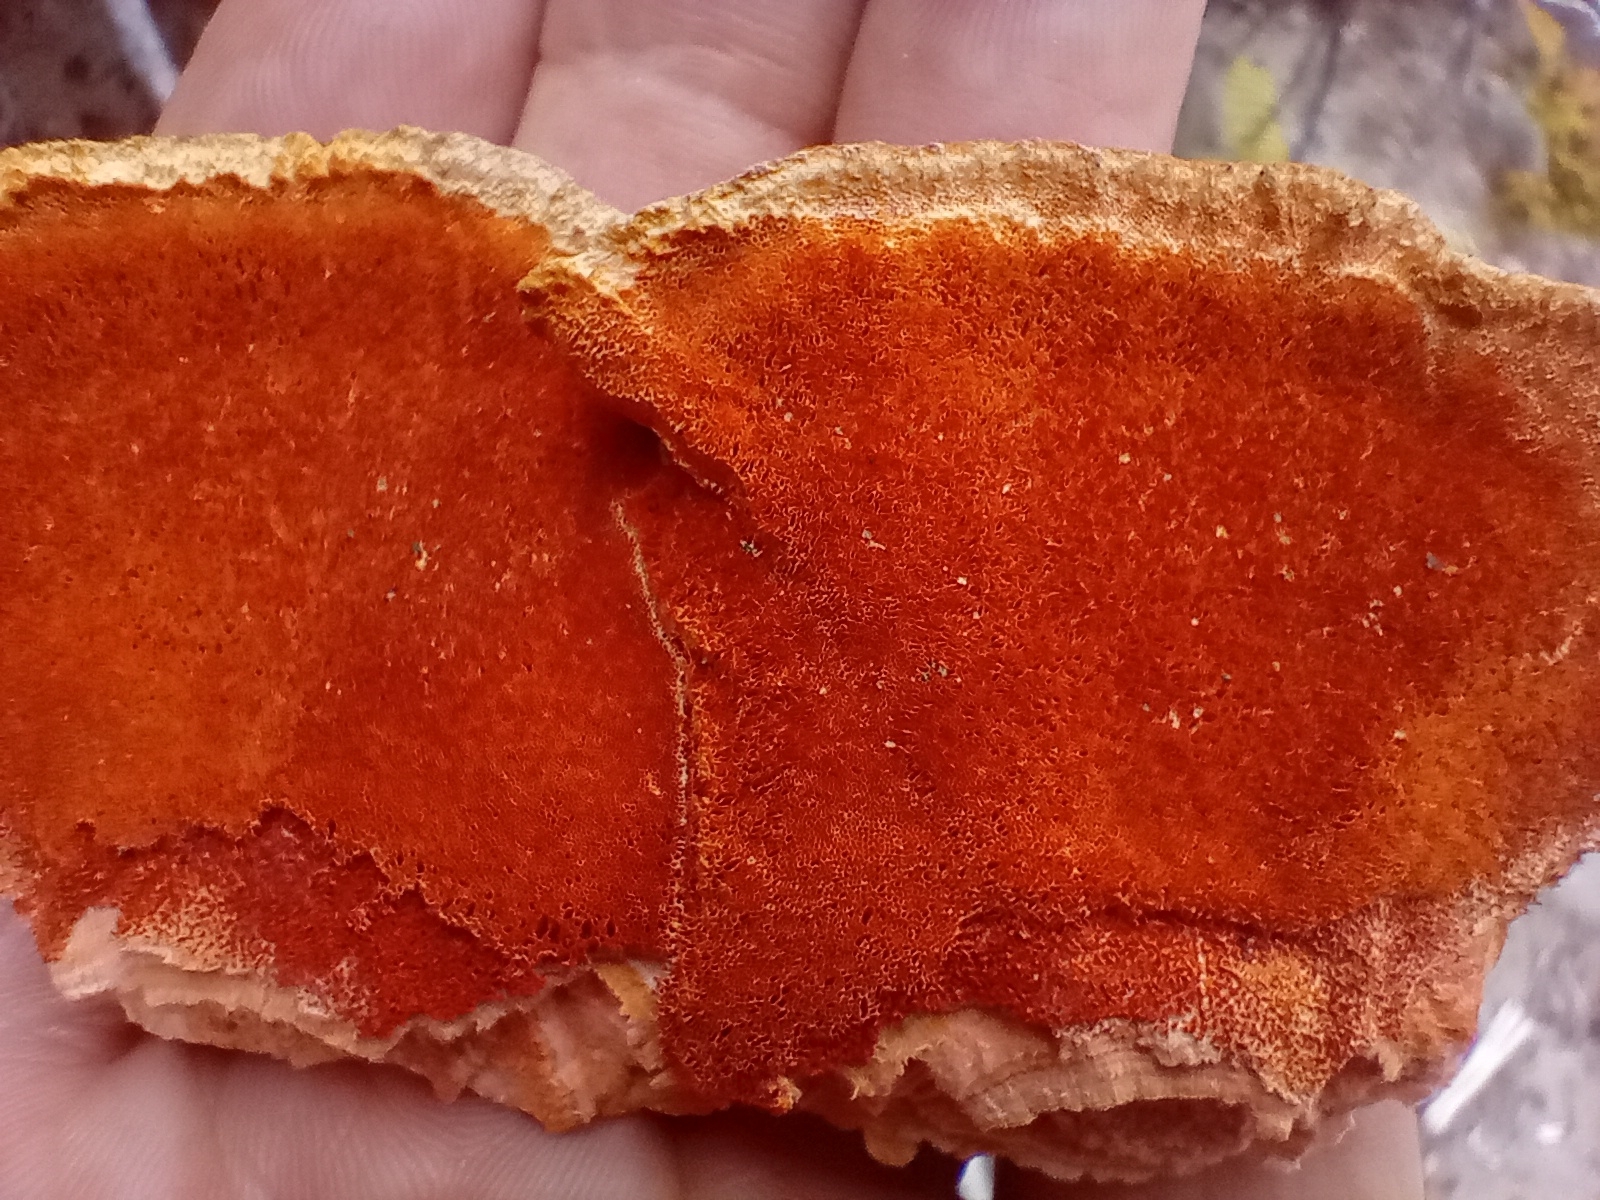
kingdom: Fungi
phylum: Basidiomycota
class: Agaricomycetes
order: Polyporales
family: Polyporaceae
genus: Trametes
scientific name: Trametes coccinea
